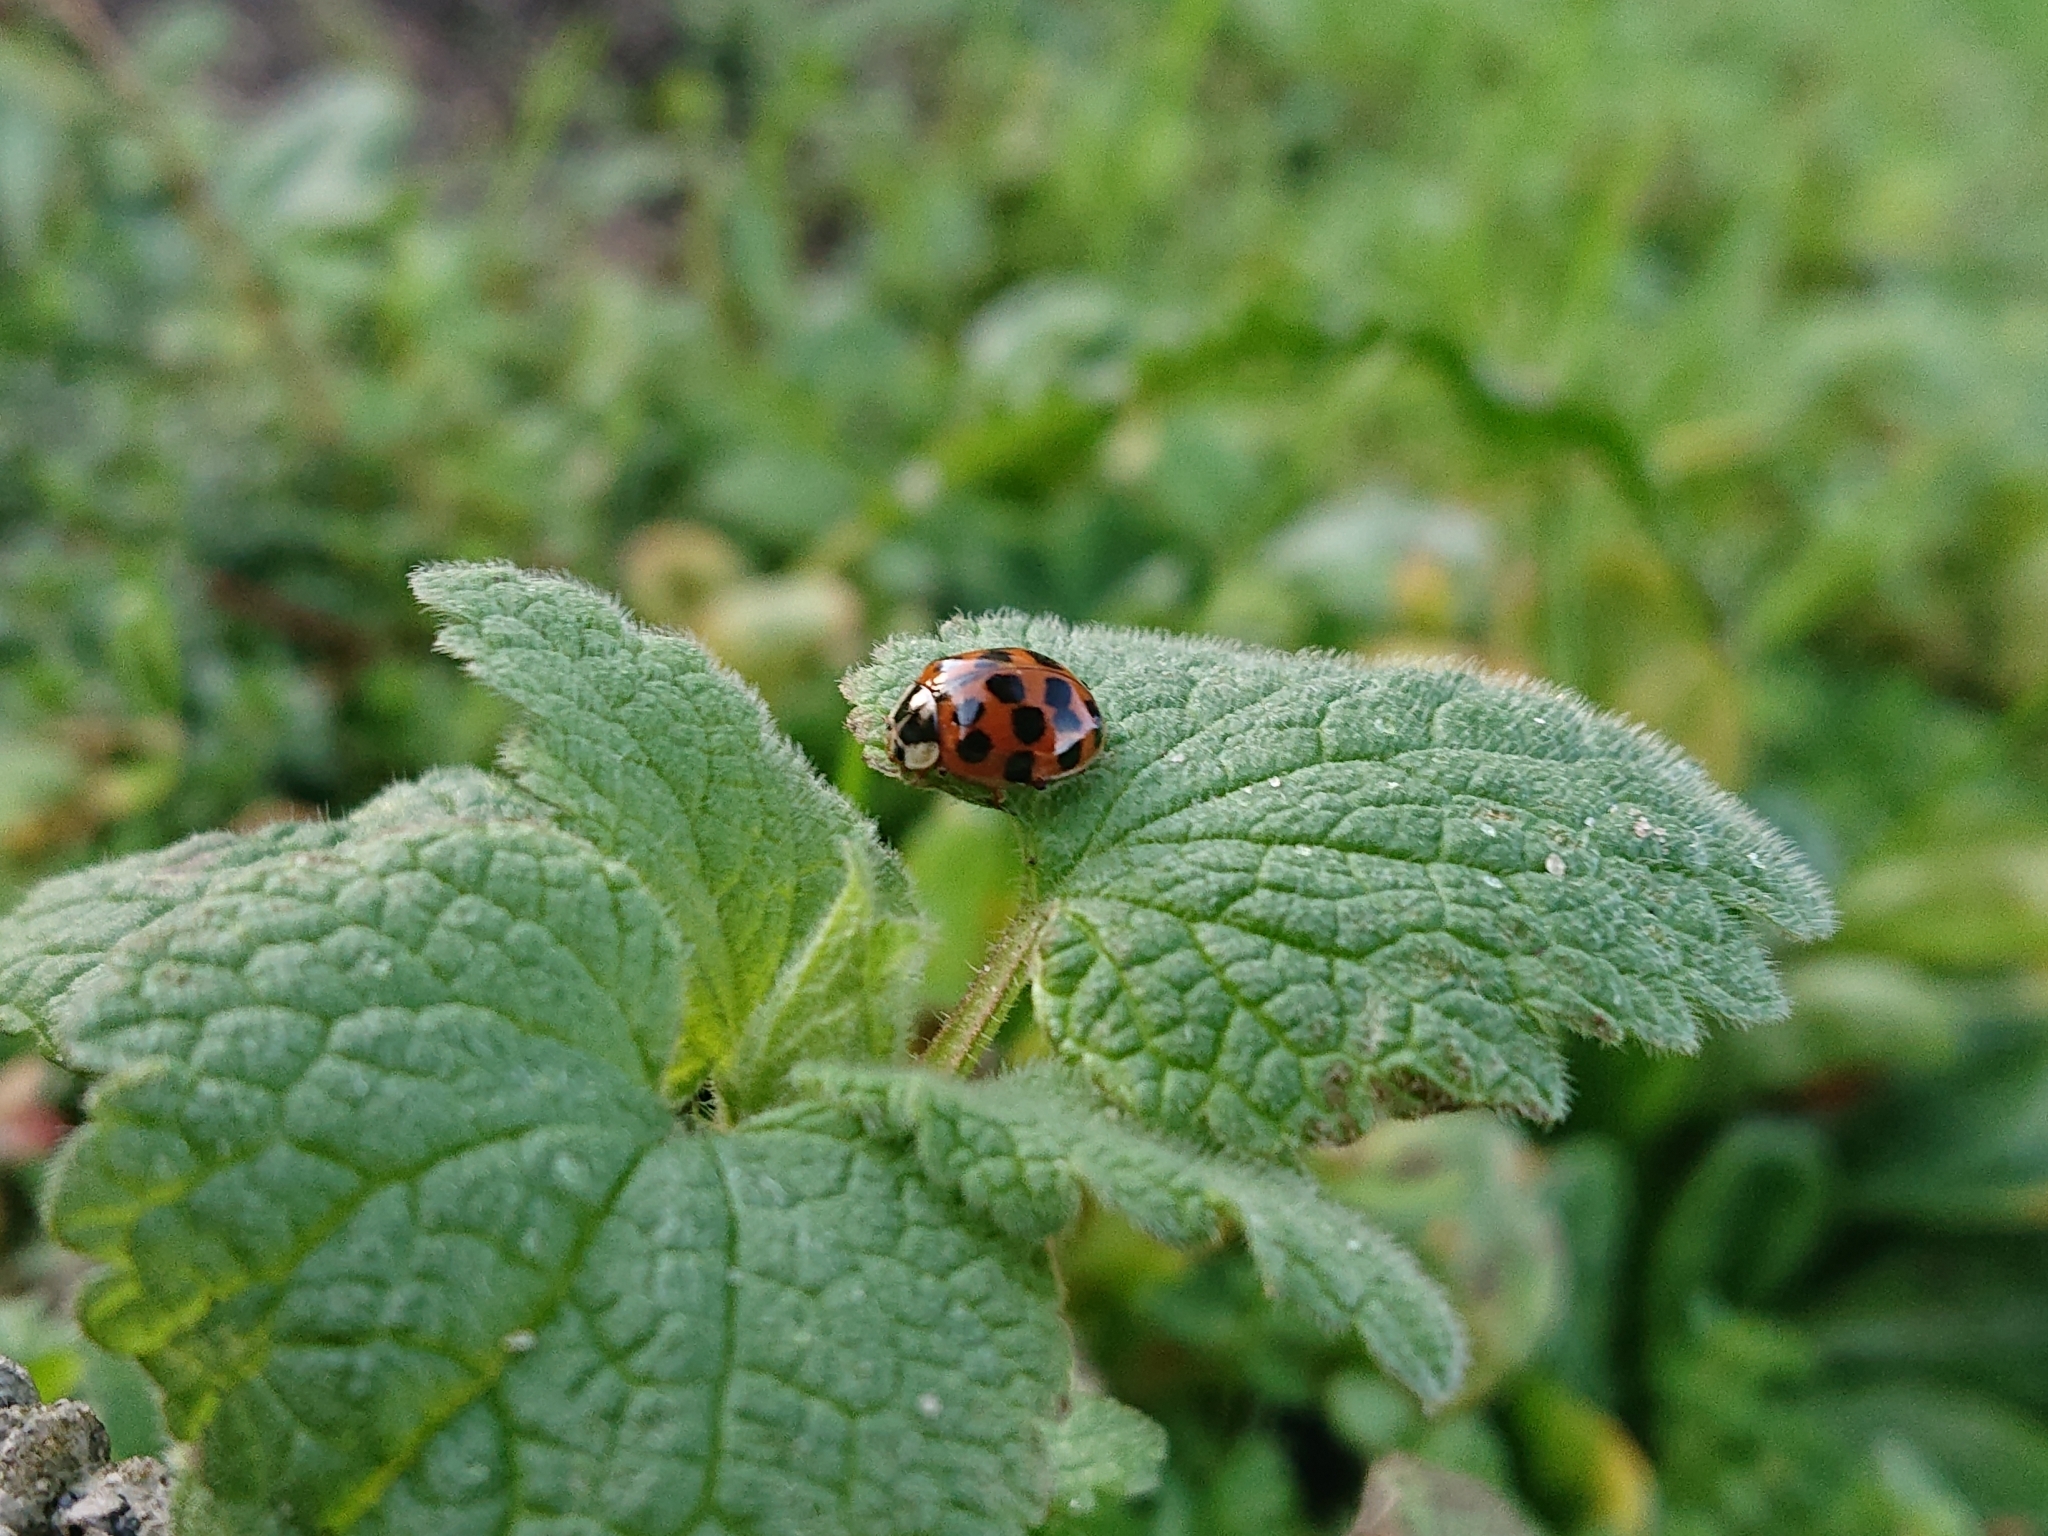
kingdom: Animalia
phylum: Arthropoda
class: Insecta
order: Coleoptera
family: Coccinellidae
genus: Harmonia
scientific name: Harmonia axyridis
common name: Harlequin ladybird
